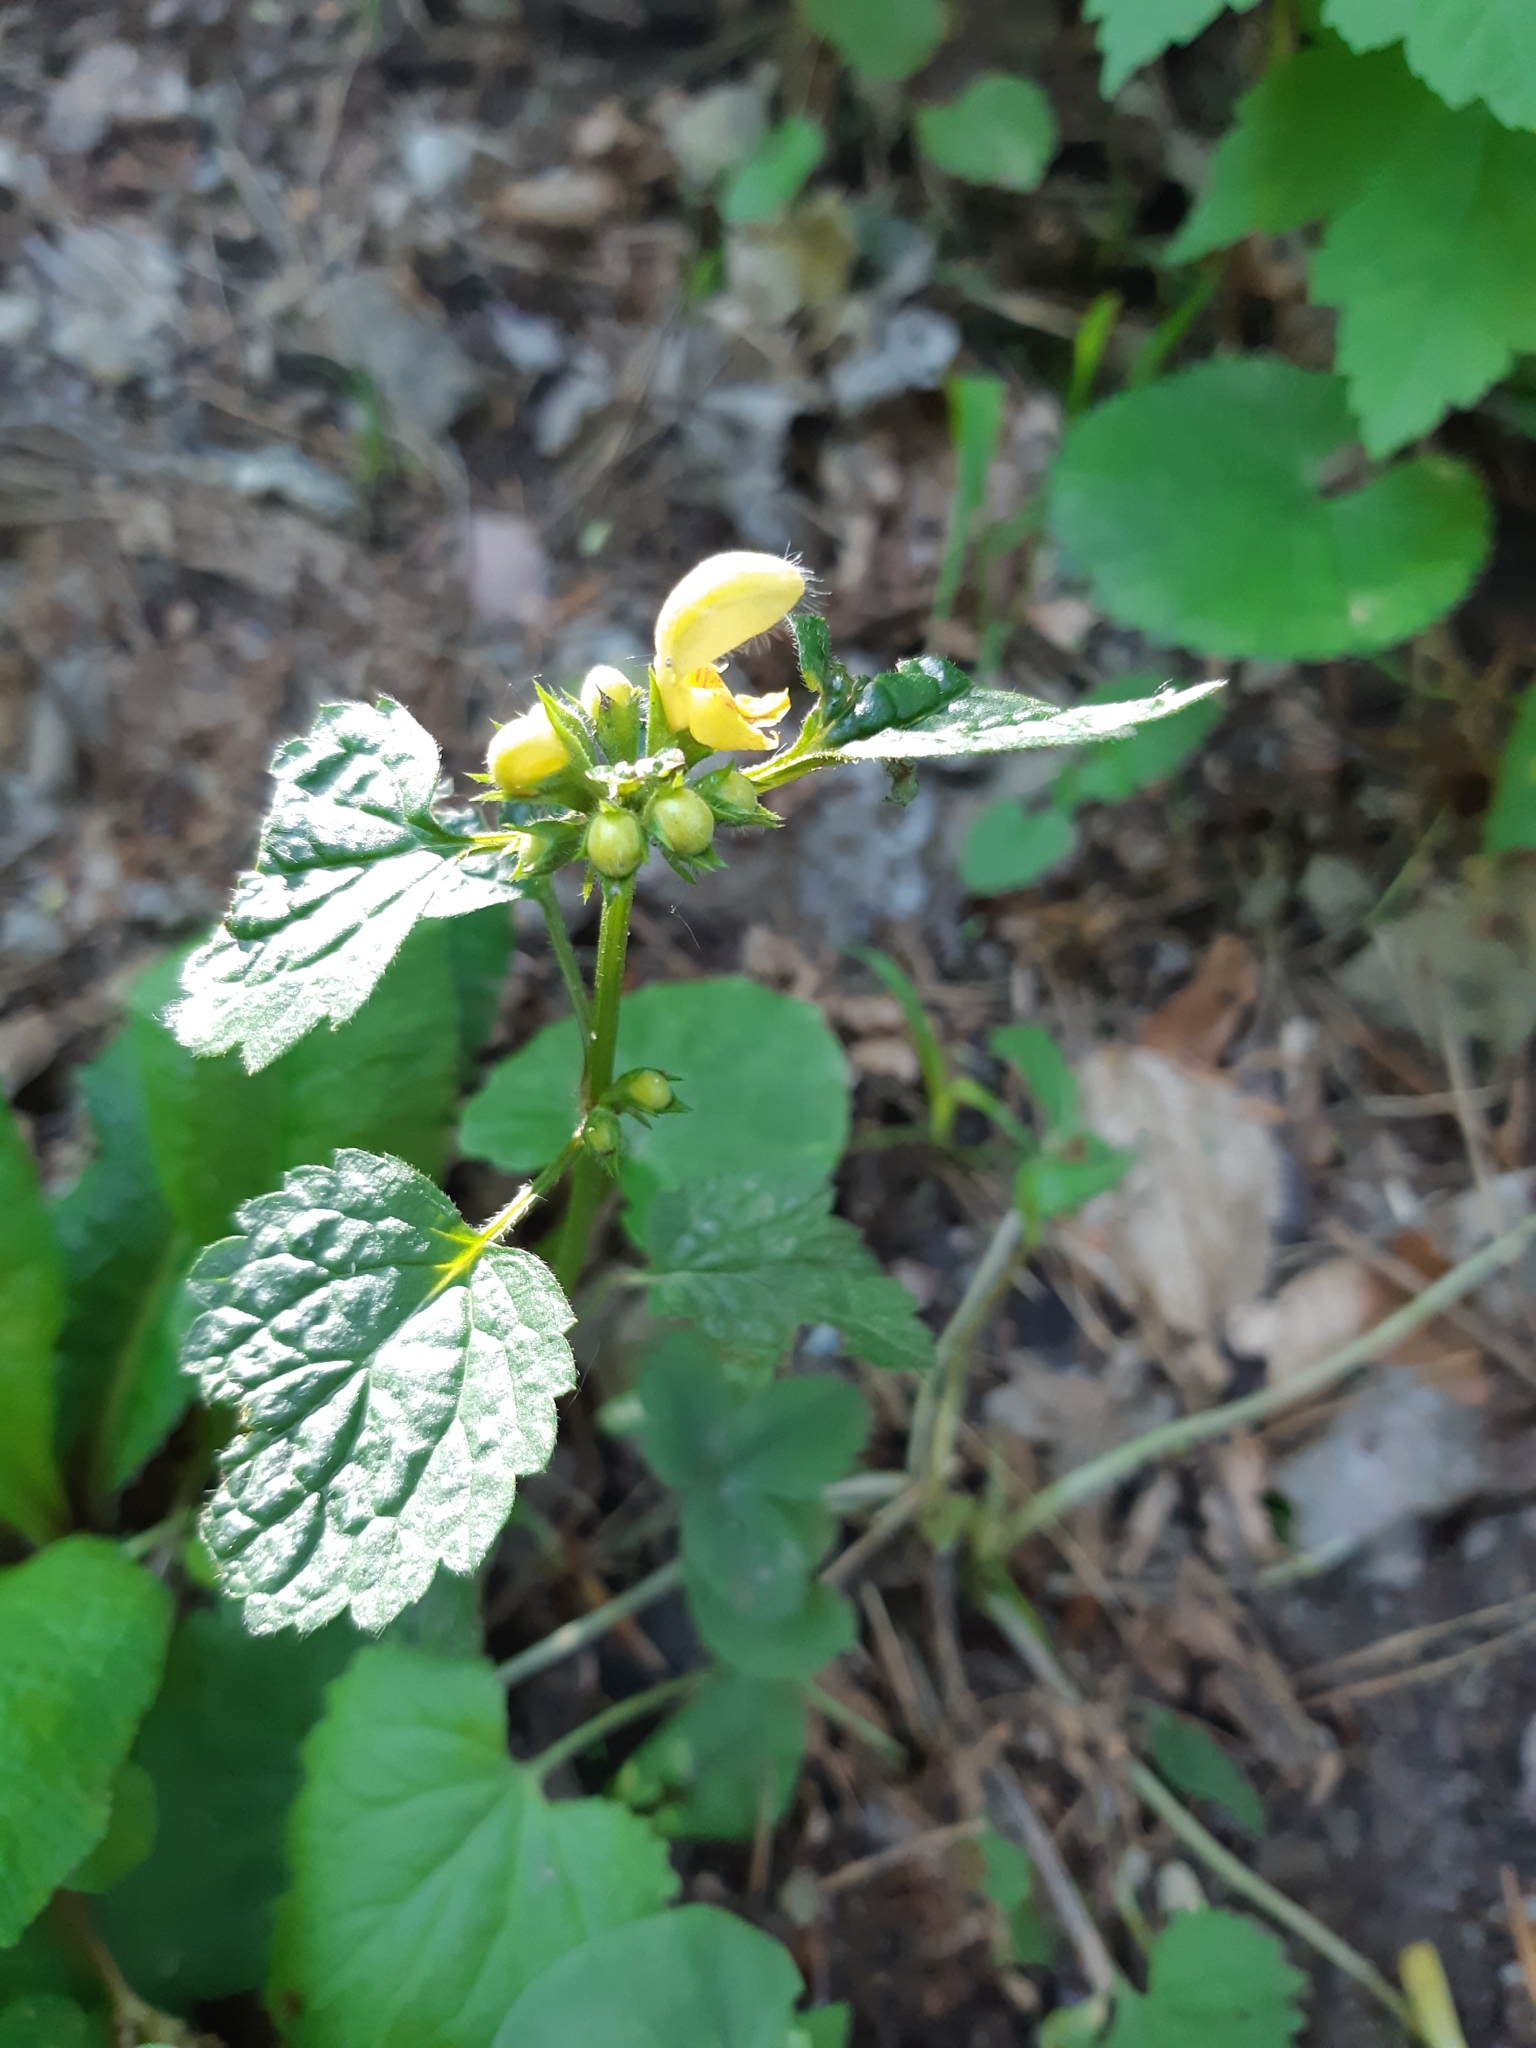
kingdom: Plantae
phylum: Tracheophyta
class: Magnoliopsida
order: Lamiales
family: Lamiaceae
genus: Lamium
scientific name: Lamium galeobdolon
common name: Yellow archangel
